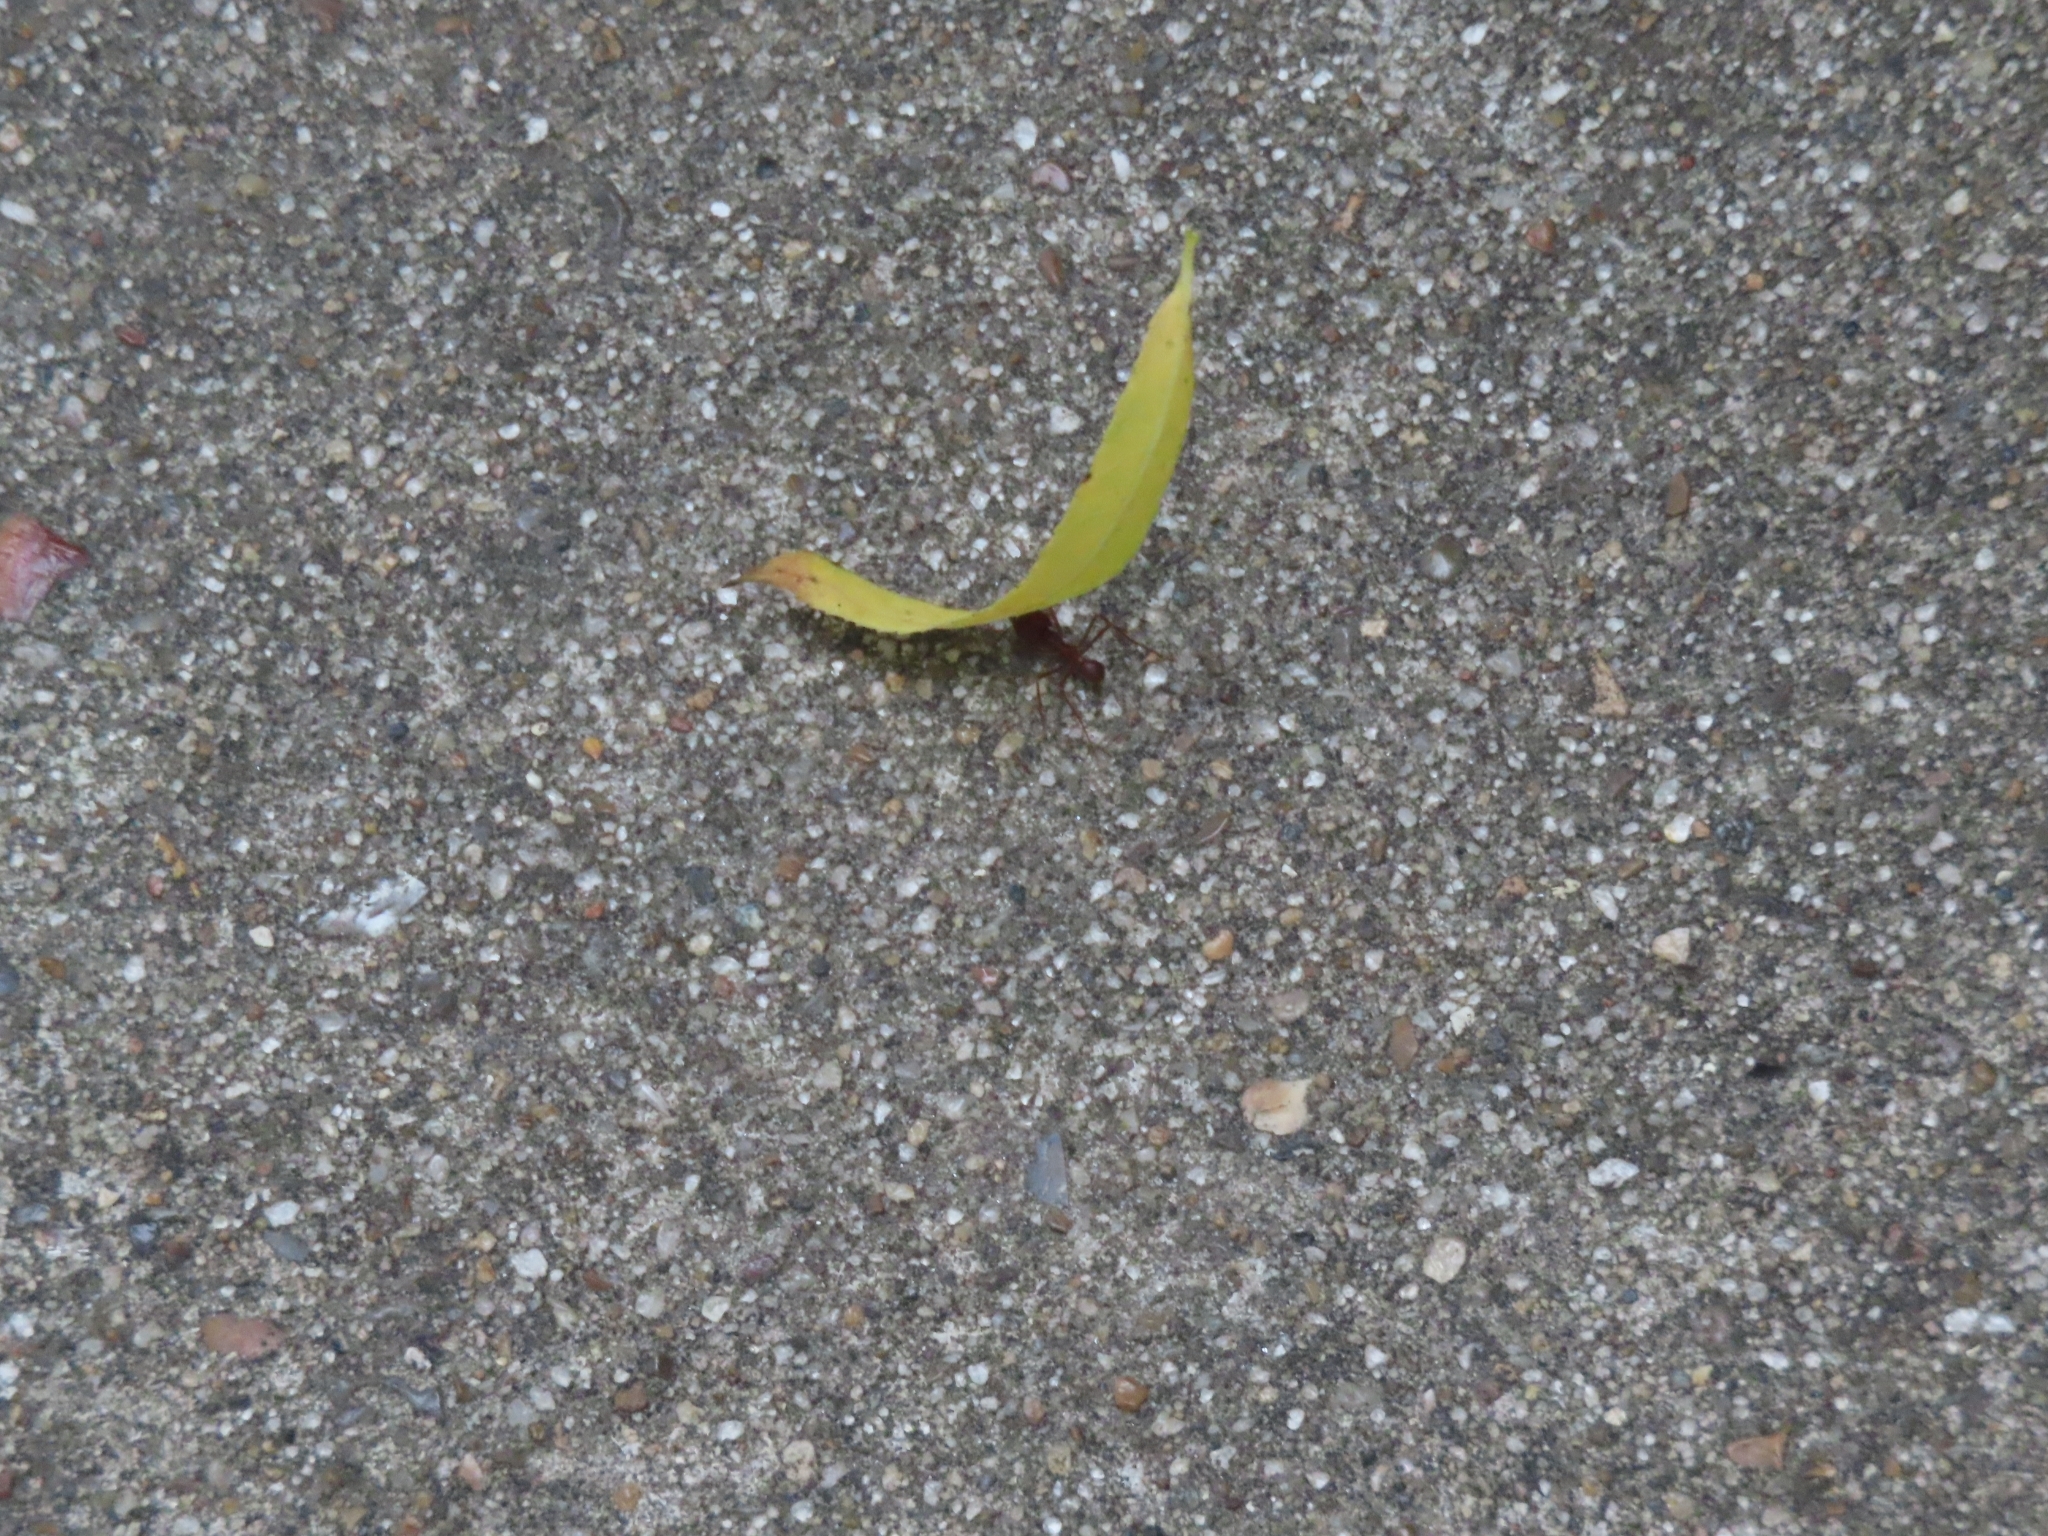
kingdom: Animalia
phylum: Arthropoda
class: Insecta
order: Hymenoptera
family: Formicidae
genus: Atta
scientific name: Atta texana
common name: Texas leafcutting ant
